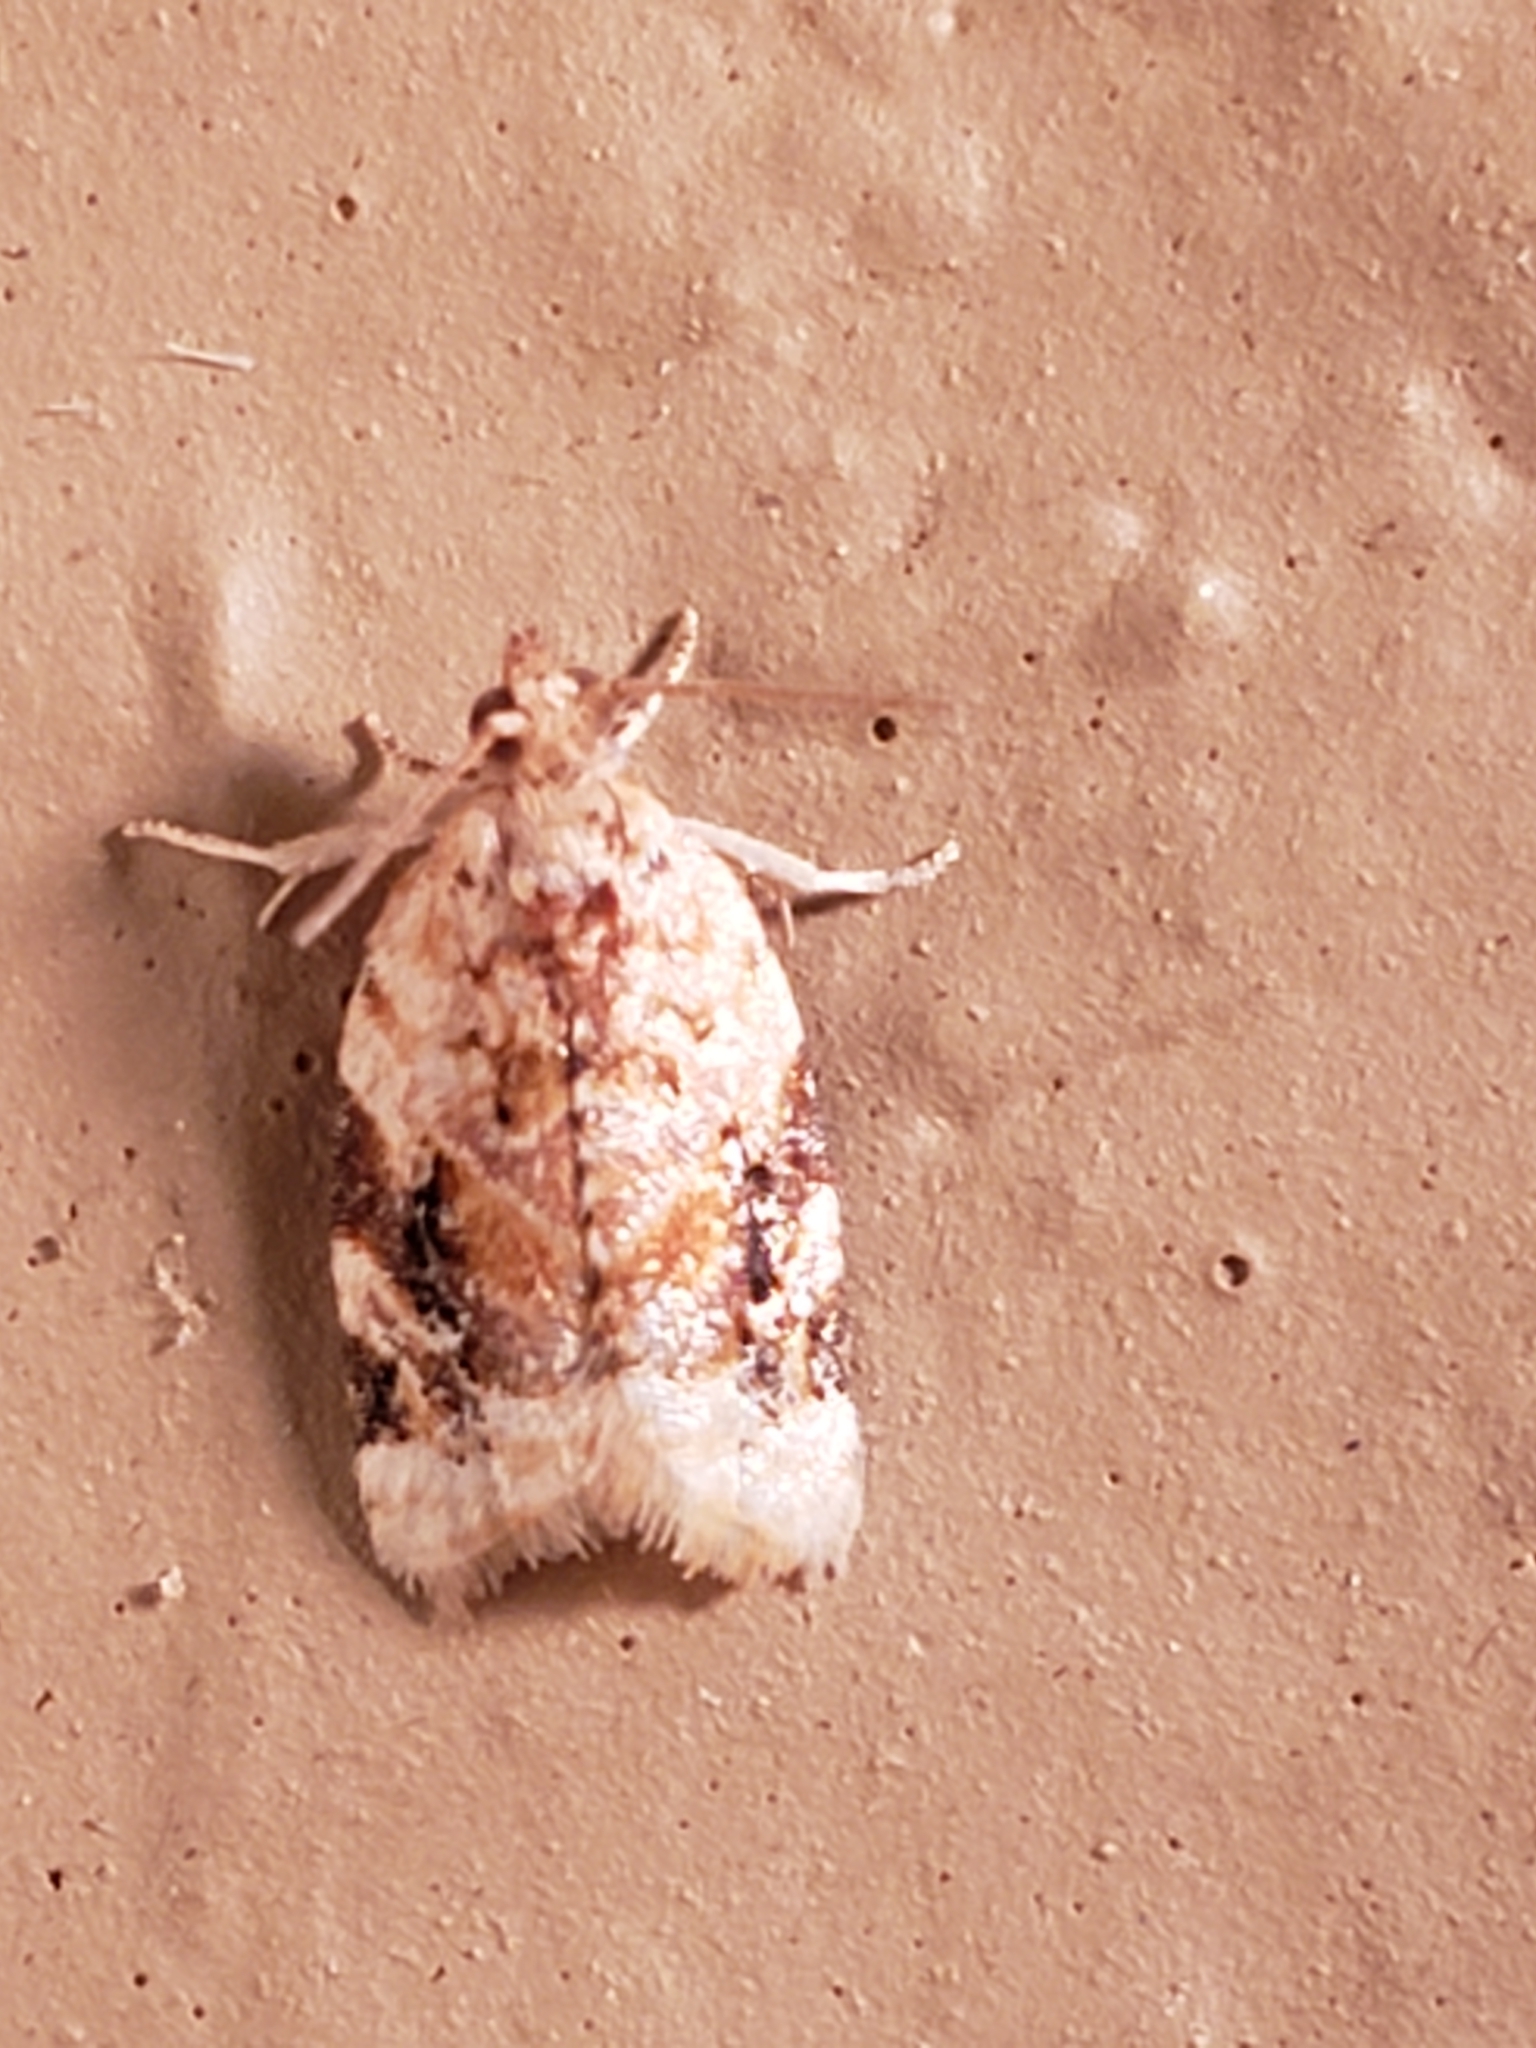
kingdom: Animalia
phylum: Arthropoda
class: Insecta
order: Lepidoptera
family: Tortricidae
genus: Argyrotaenia
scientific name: Argyrotaenia velutinana
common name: Red-banded leafroller moth
